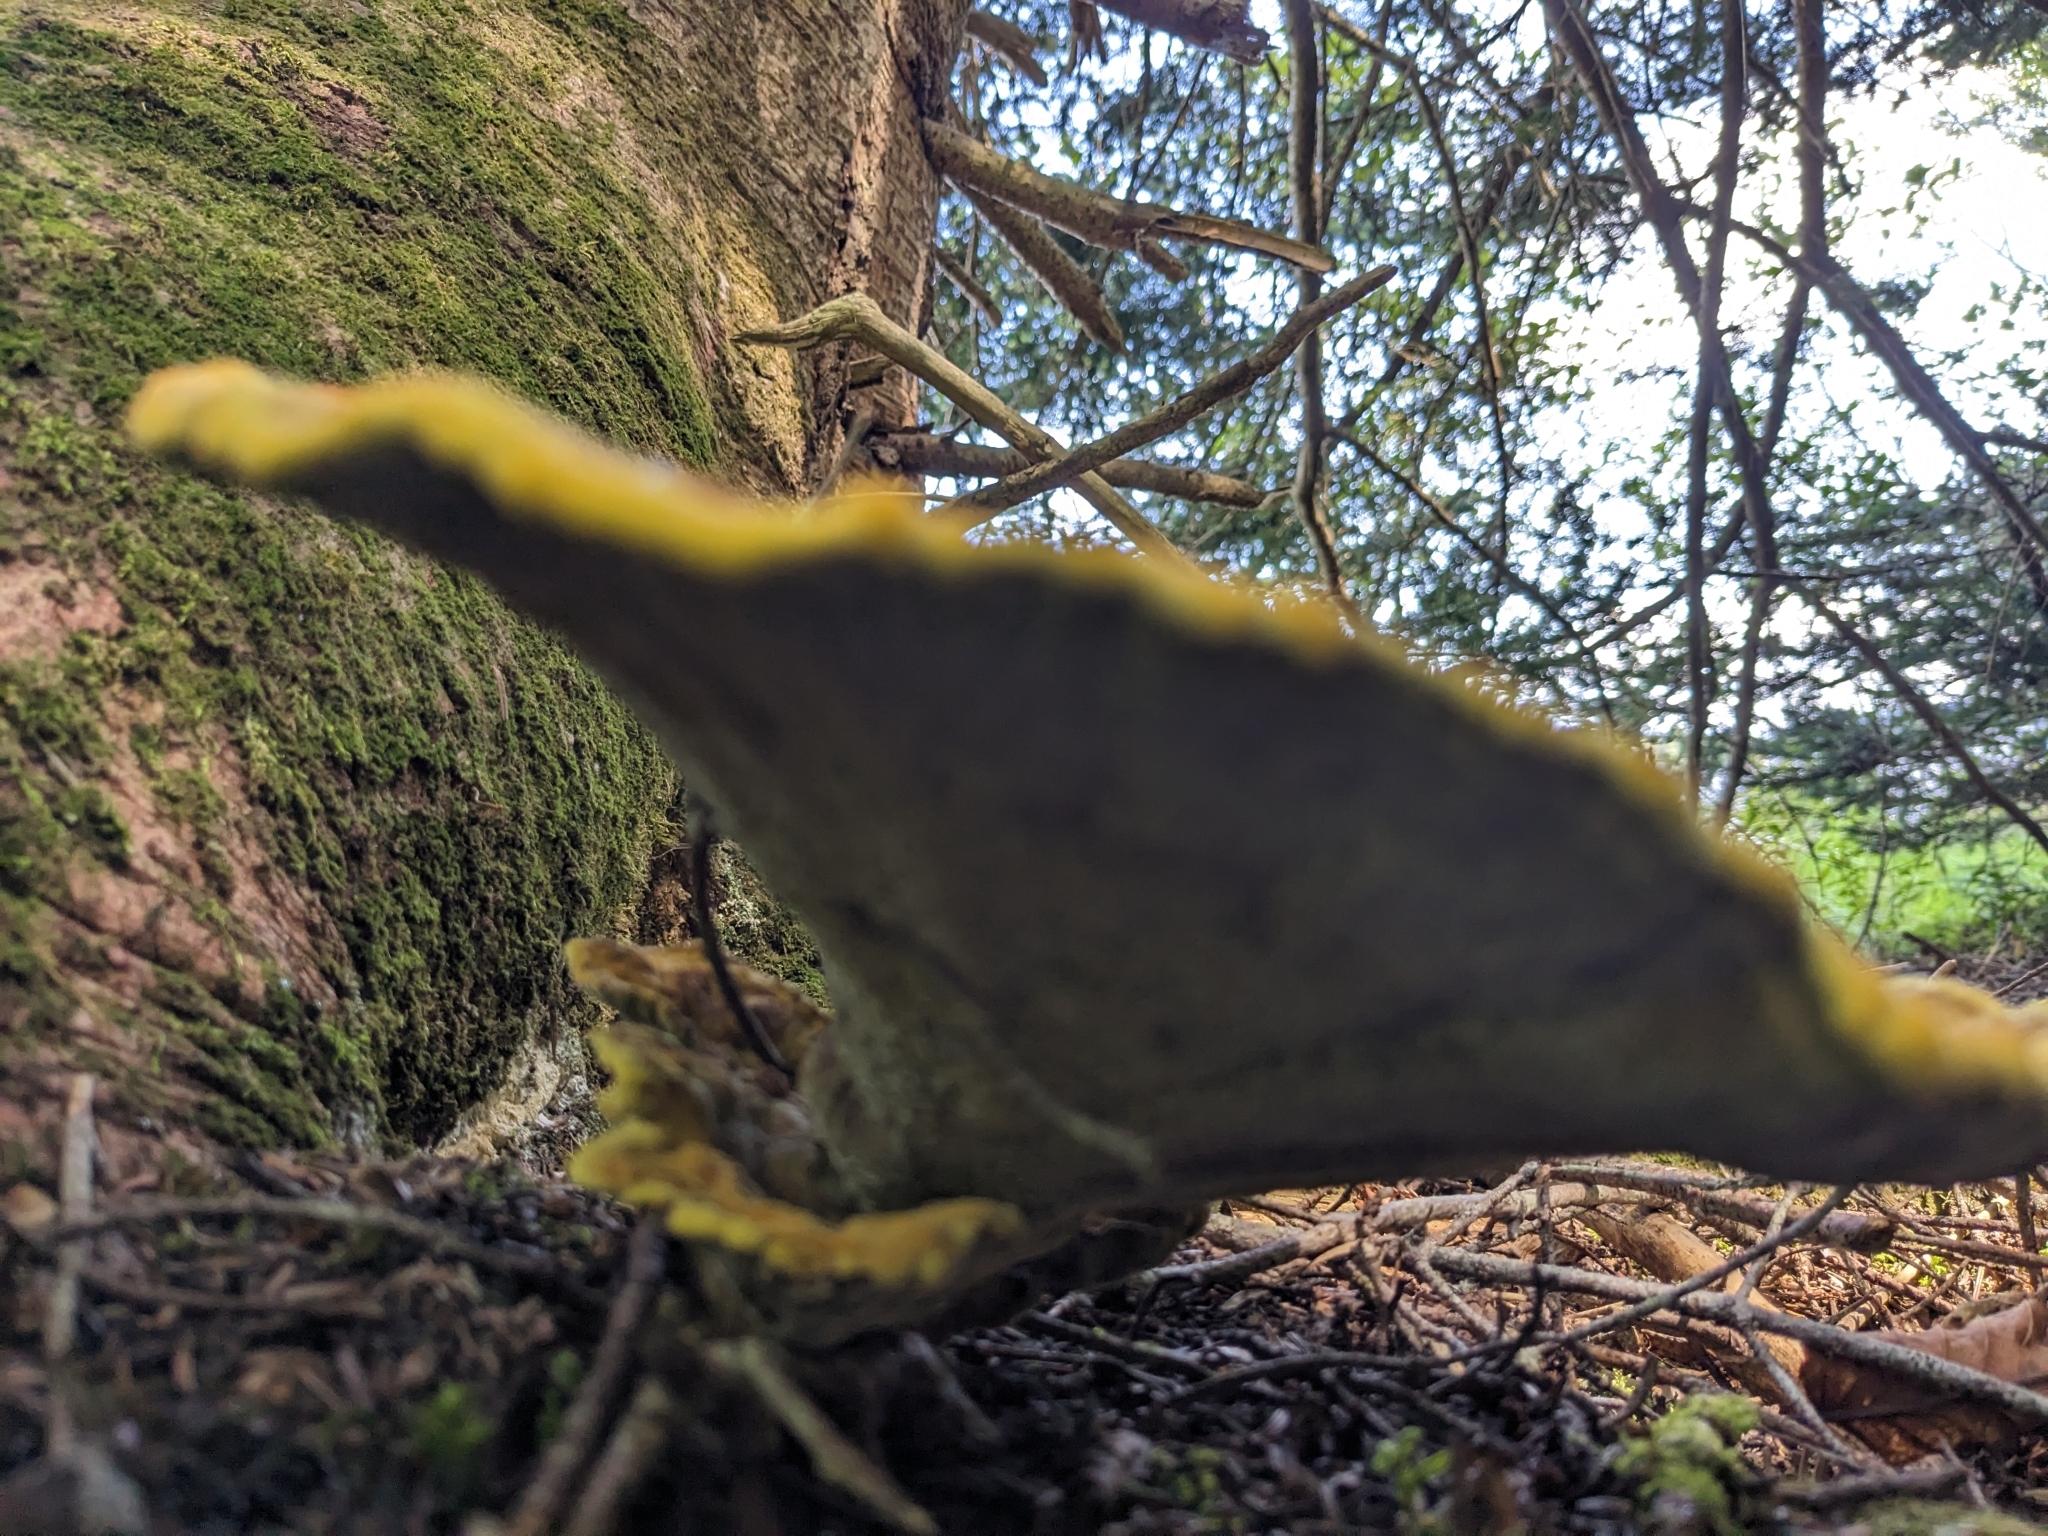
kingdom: Fungi
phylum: Basidiomycota
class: Agaricomycetes
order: Polyporales
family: Laetiporaceae
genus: Phaeolus
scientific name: Phaeolus schweinitzii
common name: Dyer's mazegill
